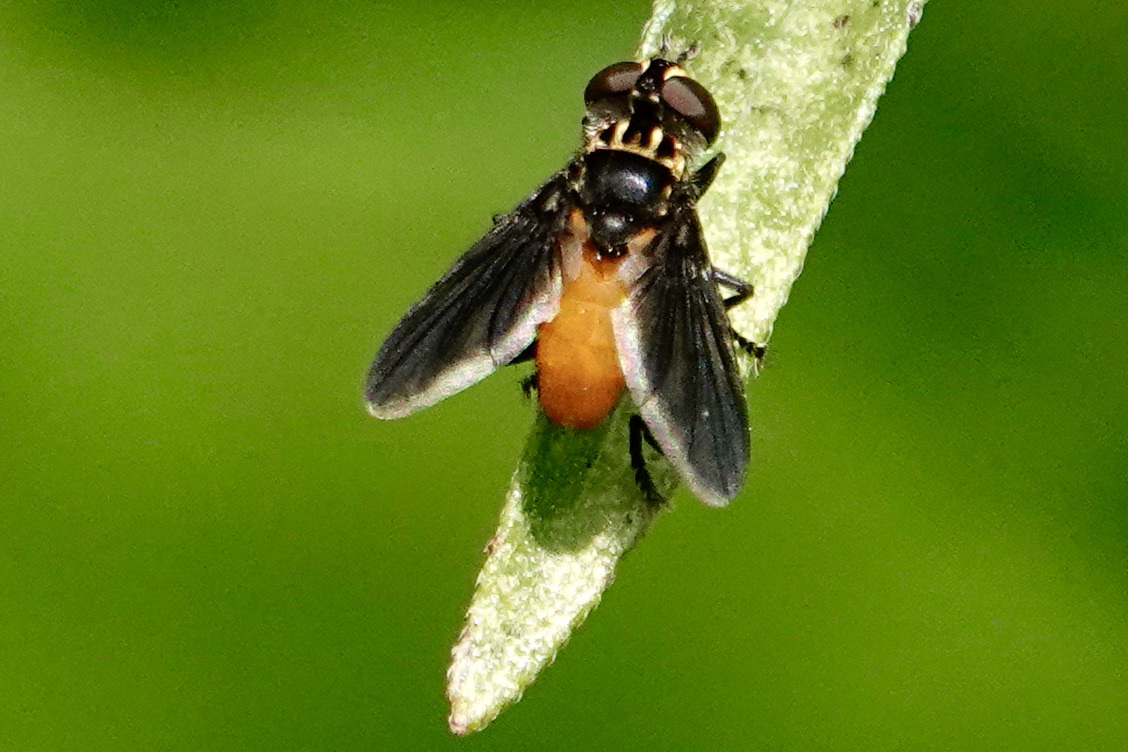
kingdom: Animalia
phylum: Arthropoda
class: Insecta
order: Diptera
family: Tachinidae
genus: Trichopoda
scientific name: Trichopoda pennipes
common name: Tachinid fly
